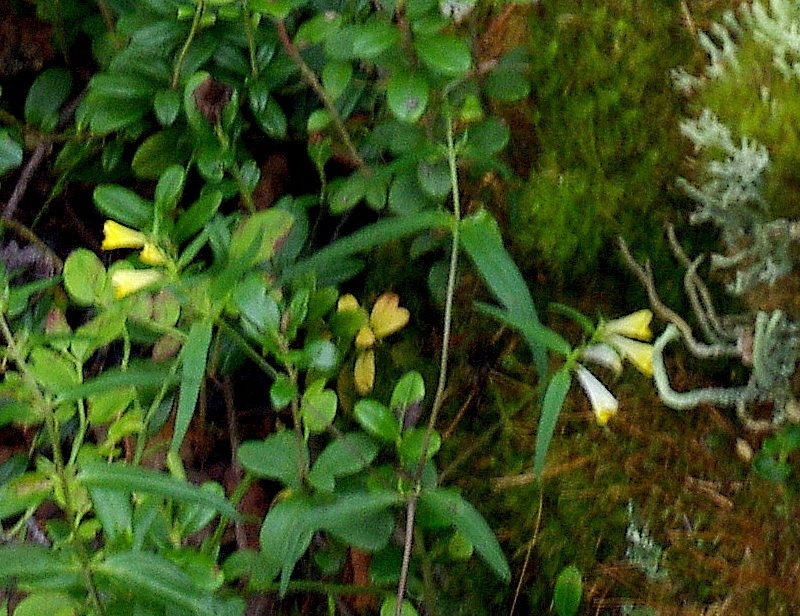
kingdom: Plantae
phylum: Tracheophyta
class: Magnoliopsida
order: Lamiales
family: Orobanchaceae
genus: Melampyrum
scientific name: Melampyrum pratense
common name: Common cow-wheat
